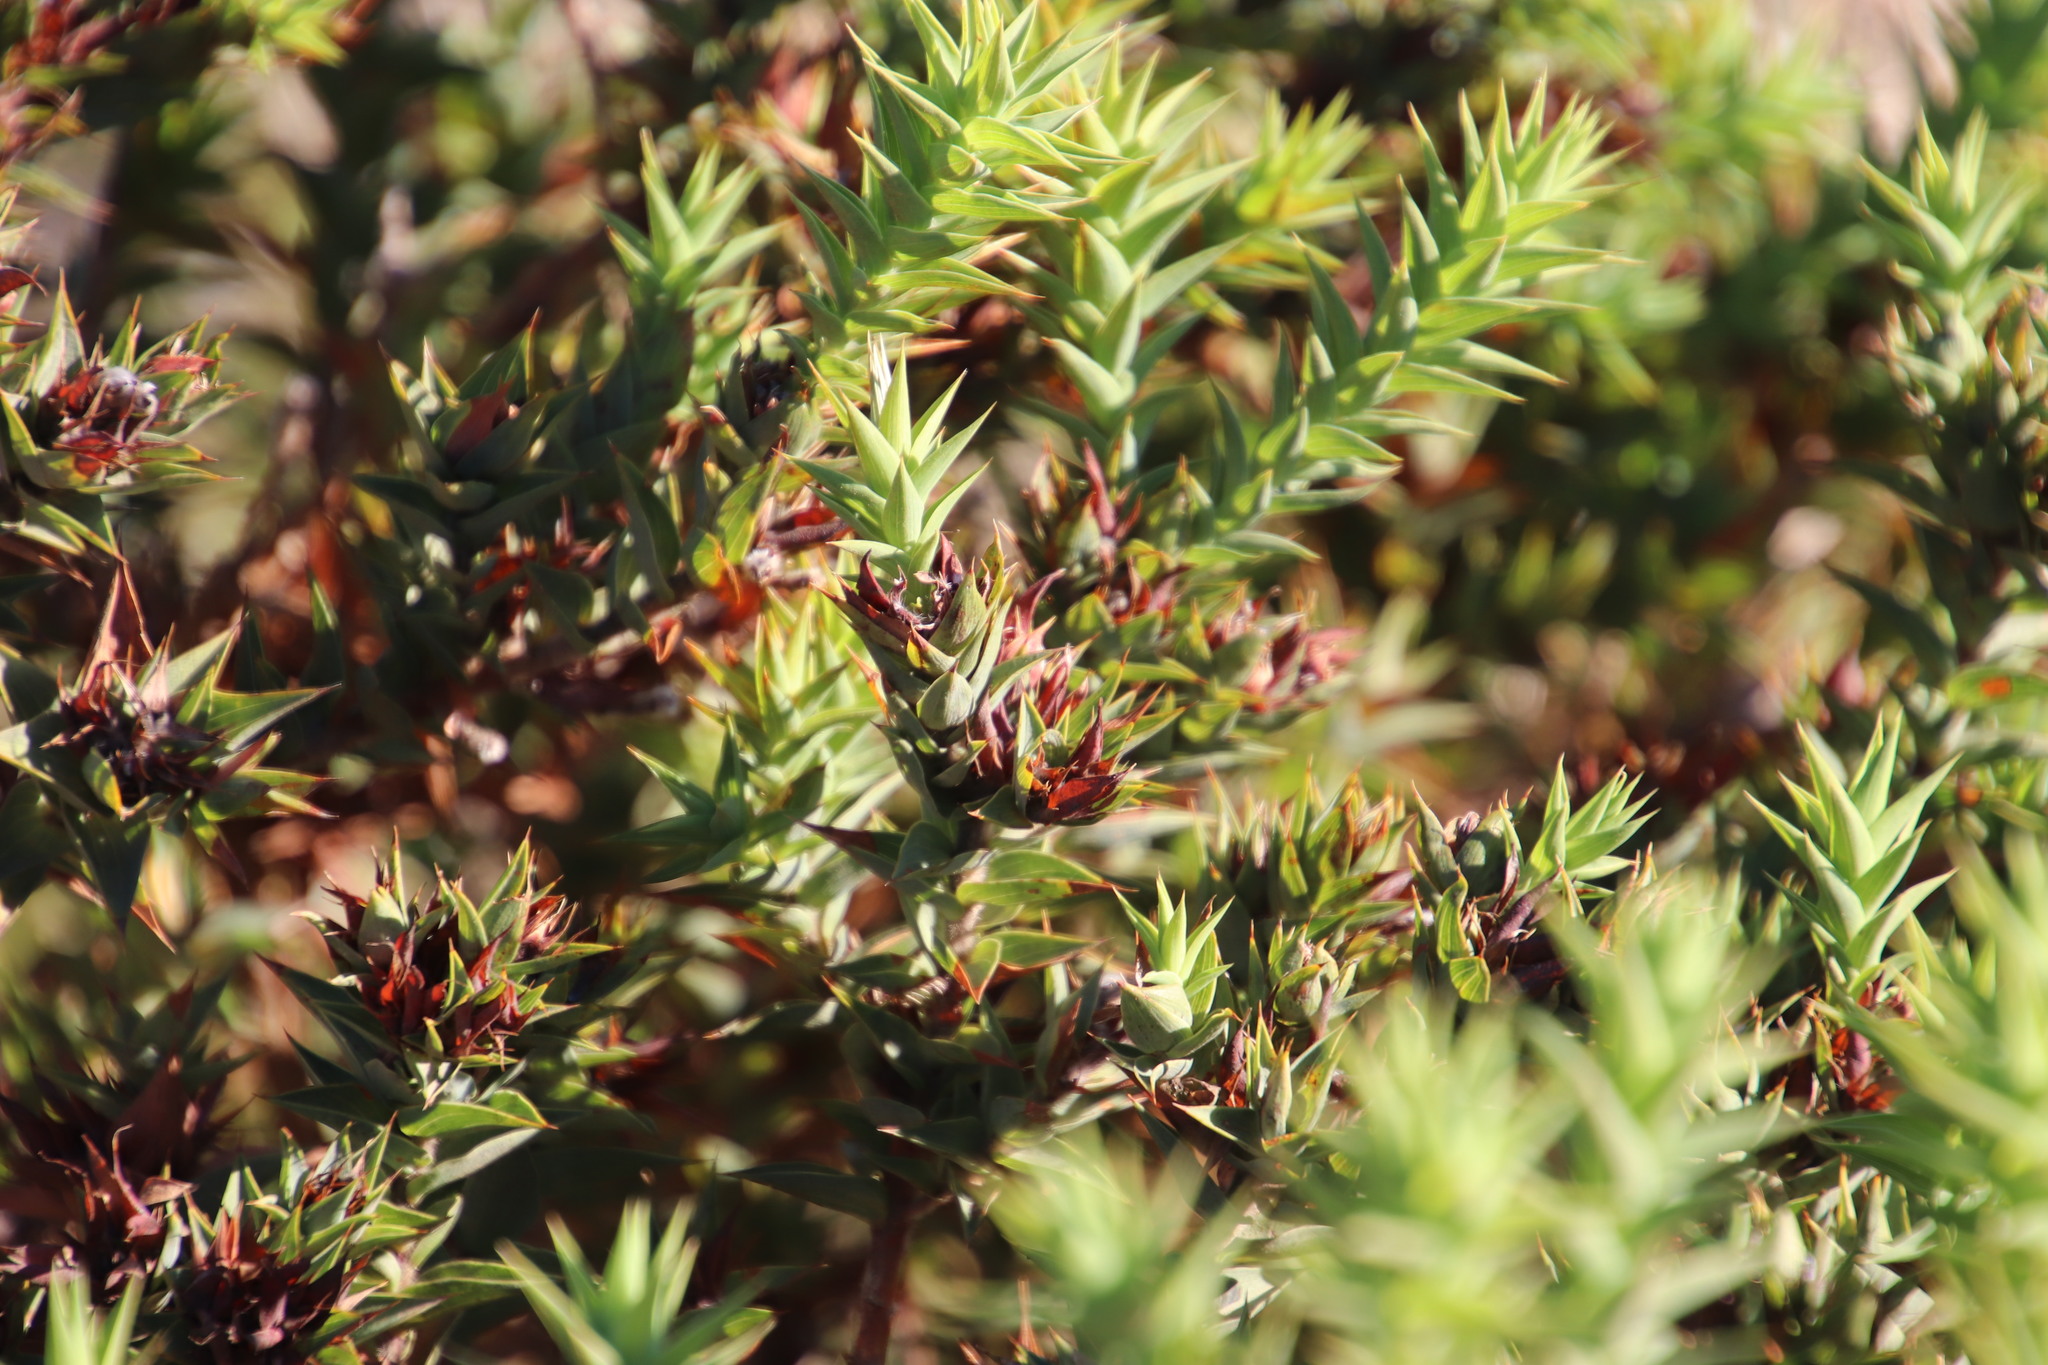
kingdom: Plantae
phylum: Tracheophyta
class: Magnoliopsida
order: Fabales
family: Fabaceae
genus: Aspalathus
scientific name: Aspalathus cordata
